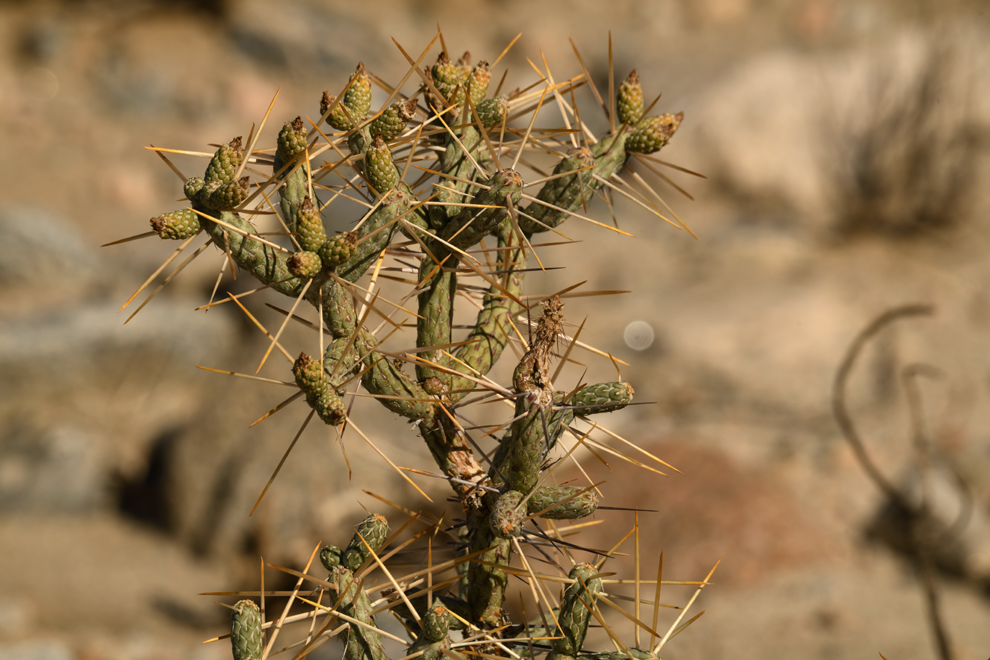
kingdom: Plantae
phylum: Tracheophyta
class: Magnoliopsida
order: Caryophyllales
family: Cactaceae
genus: Cylindropuntia
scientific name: Cylindropuntia ramosissima
